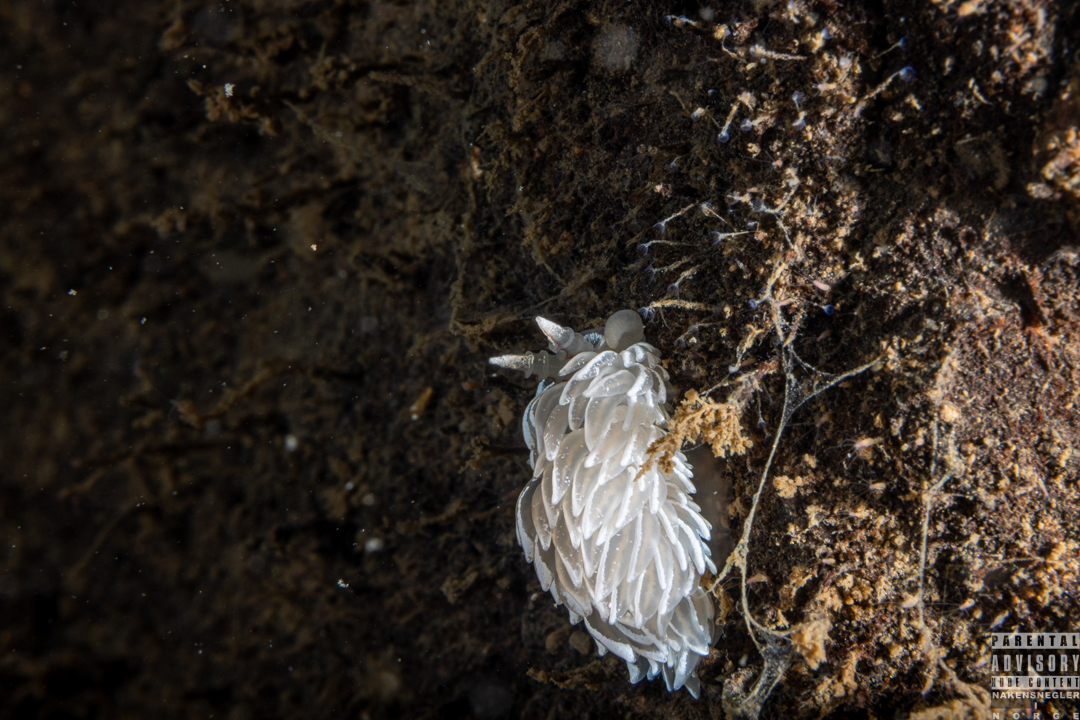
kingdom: Animalia
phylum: Mollusca
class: Gastropoda
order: Nudibranchia
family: Facelinidae
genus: Favorinus
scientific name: Favorinus blianus
